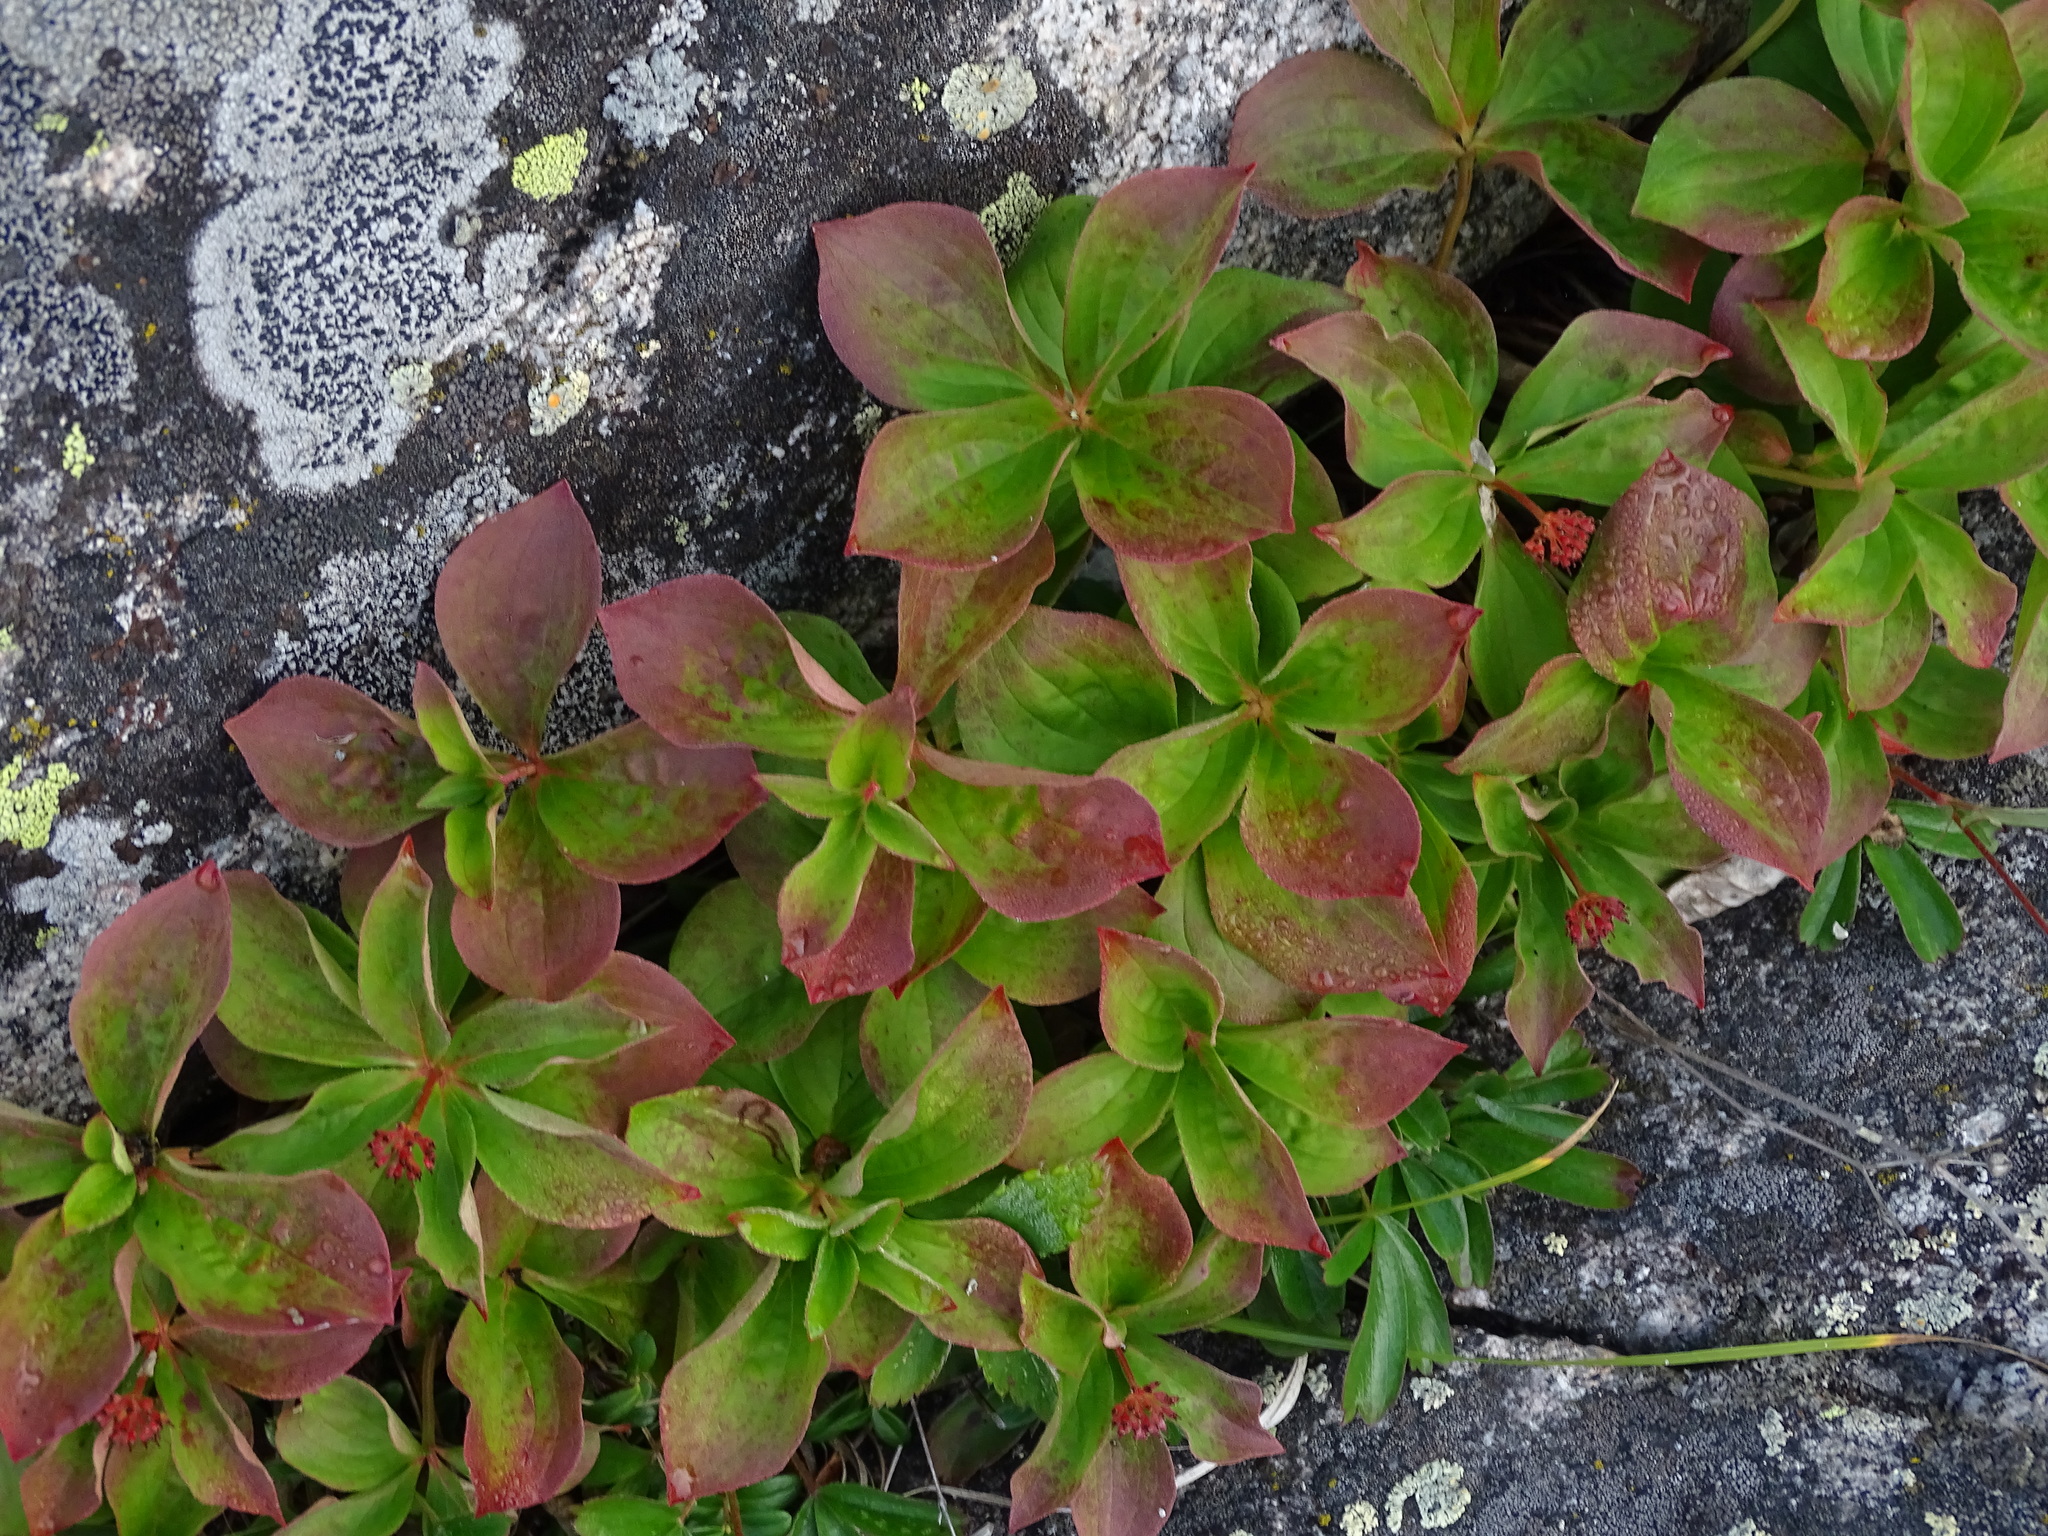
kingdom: Plantae
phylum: Tracheophyta
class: Magnoliopsida
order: Cornales
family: Cornaceae
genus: Cornus
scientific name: Cornus canadensis
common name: Creeping dogwood
